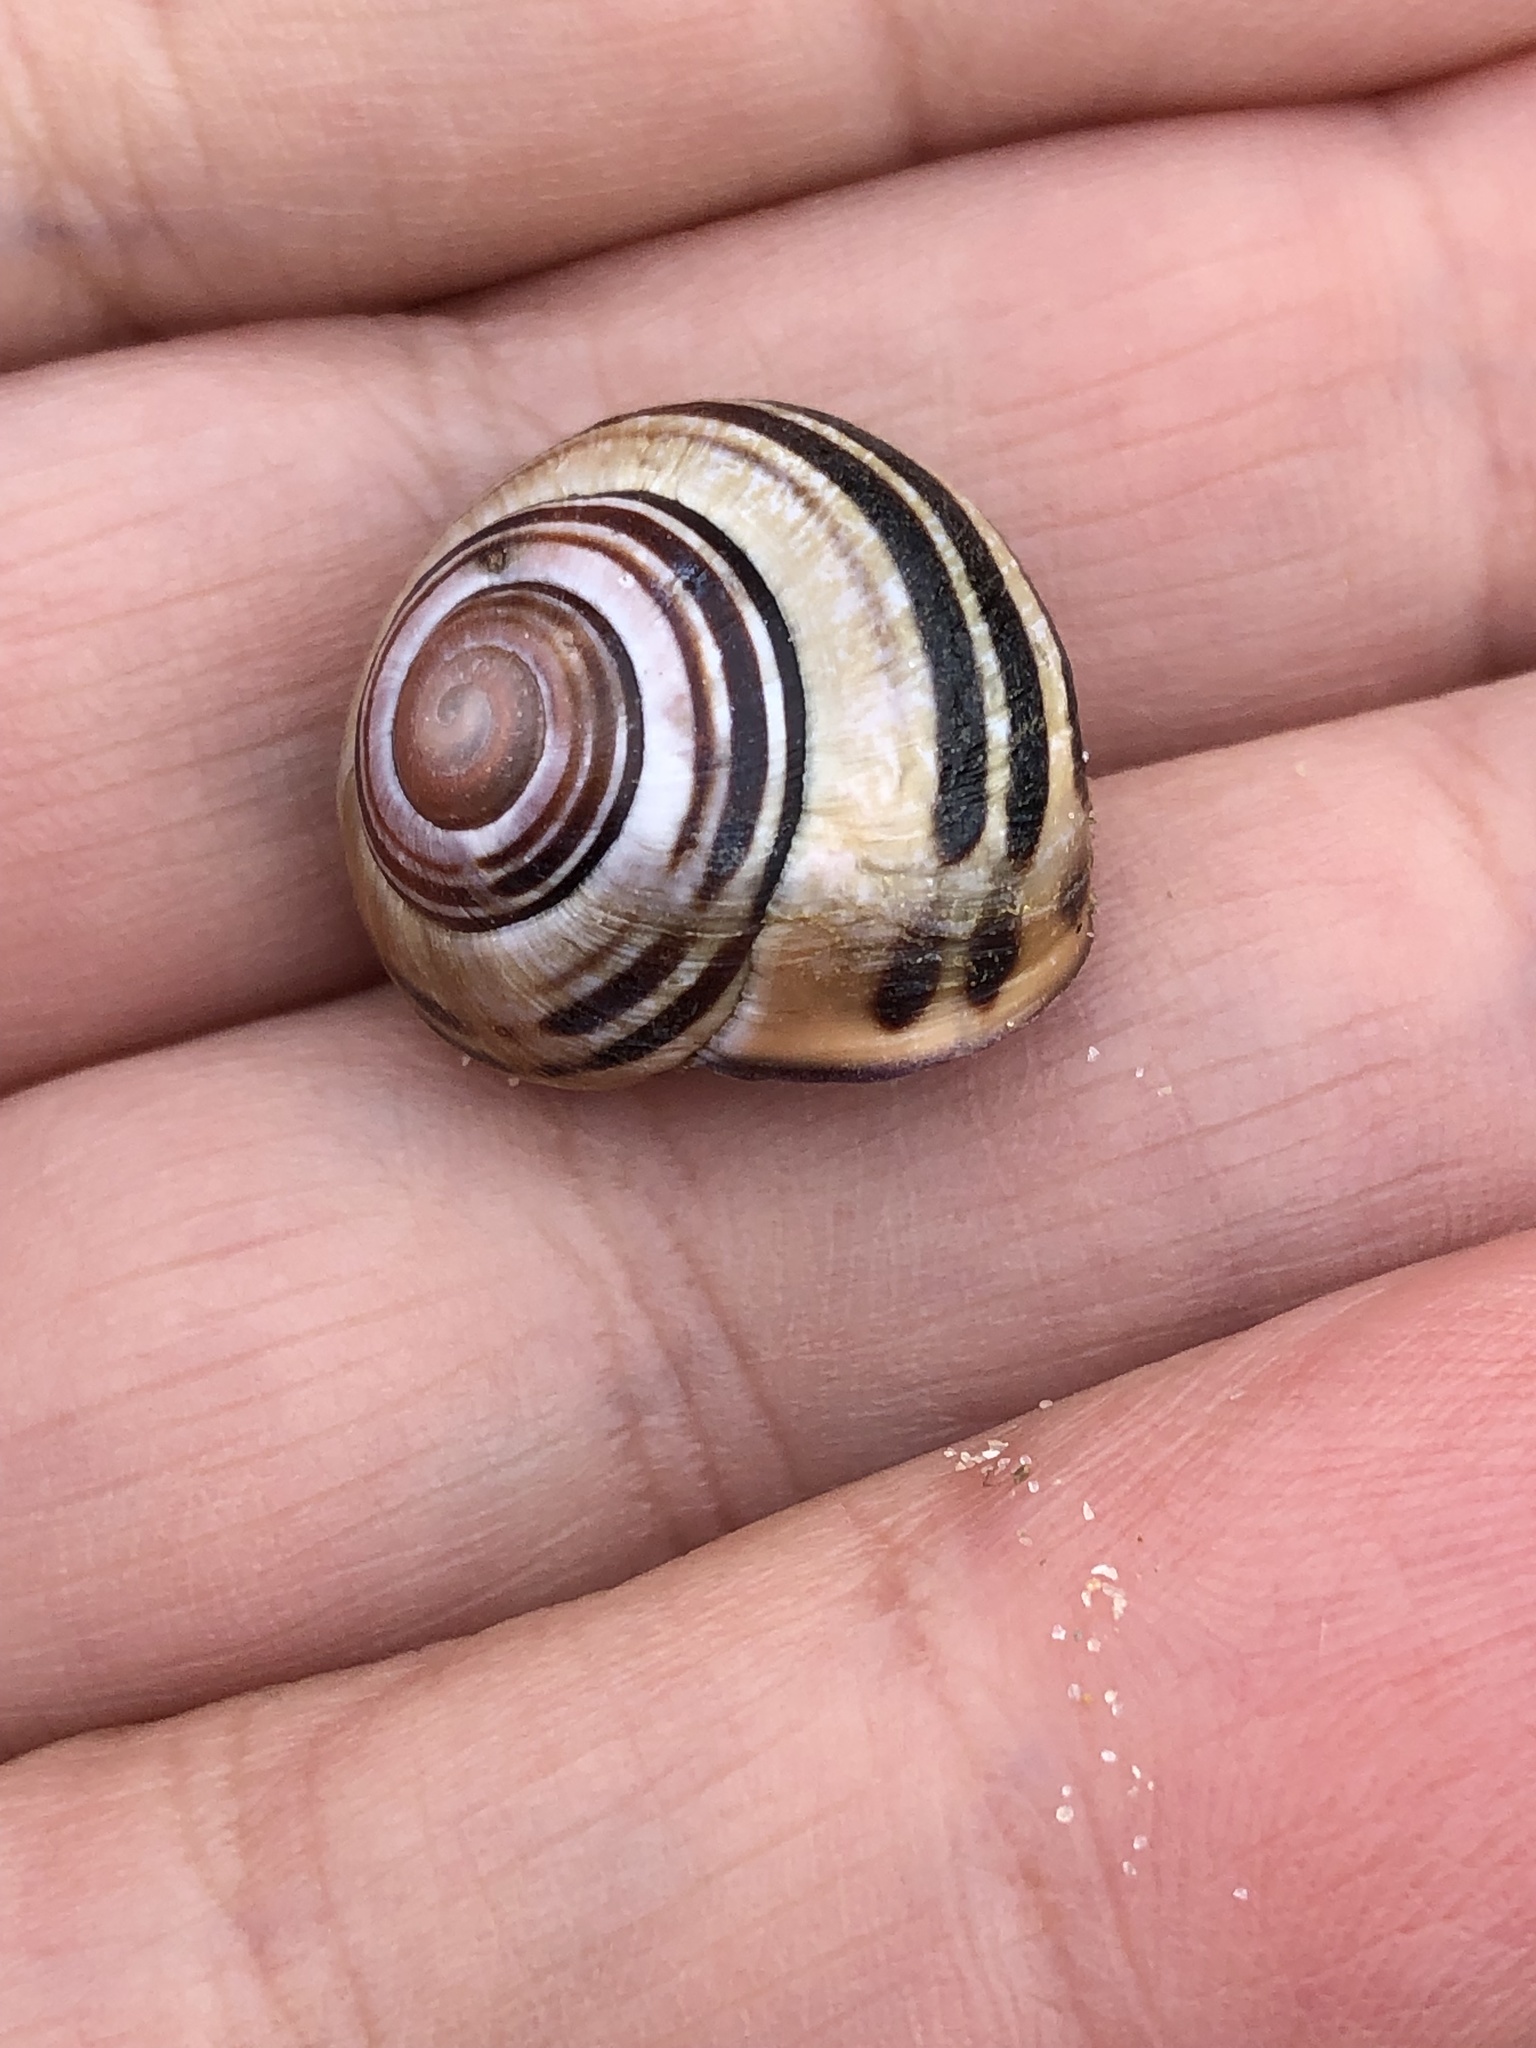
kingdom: Animalia
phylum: Mollusca
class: Gastropoda
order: Stylommatophora
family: Helicidae
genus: Cepaea
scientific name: Cepaea nemoralis
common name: Grovesnail
